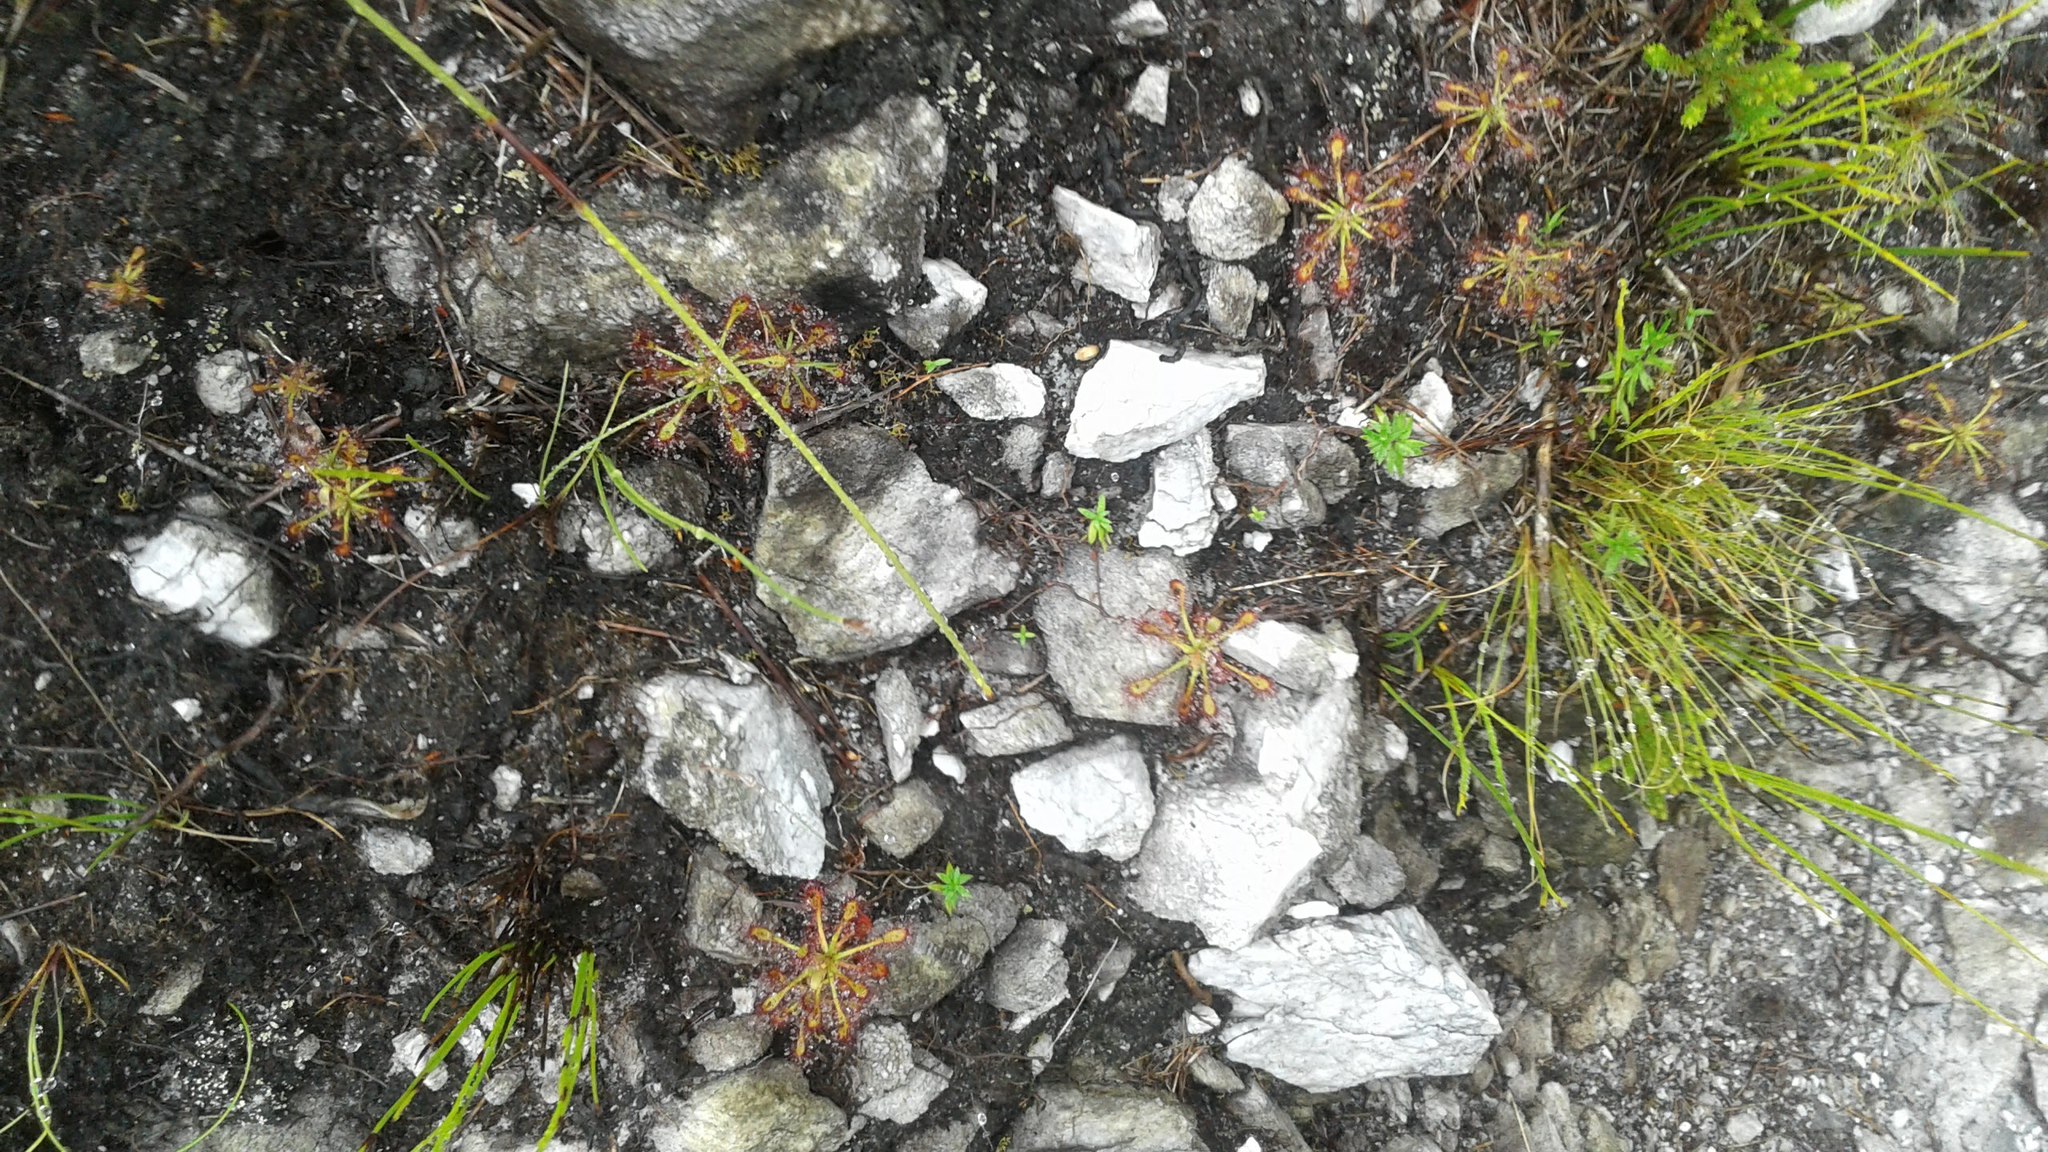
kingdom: Plantae
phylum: Tracheophyta
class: Magnoliopsida
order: Caryophyllales
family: Droseraceae
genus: Drosera
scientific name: Drosera glabripes
